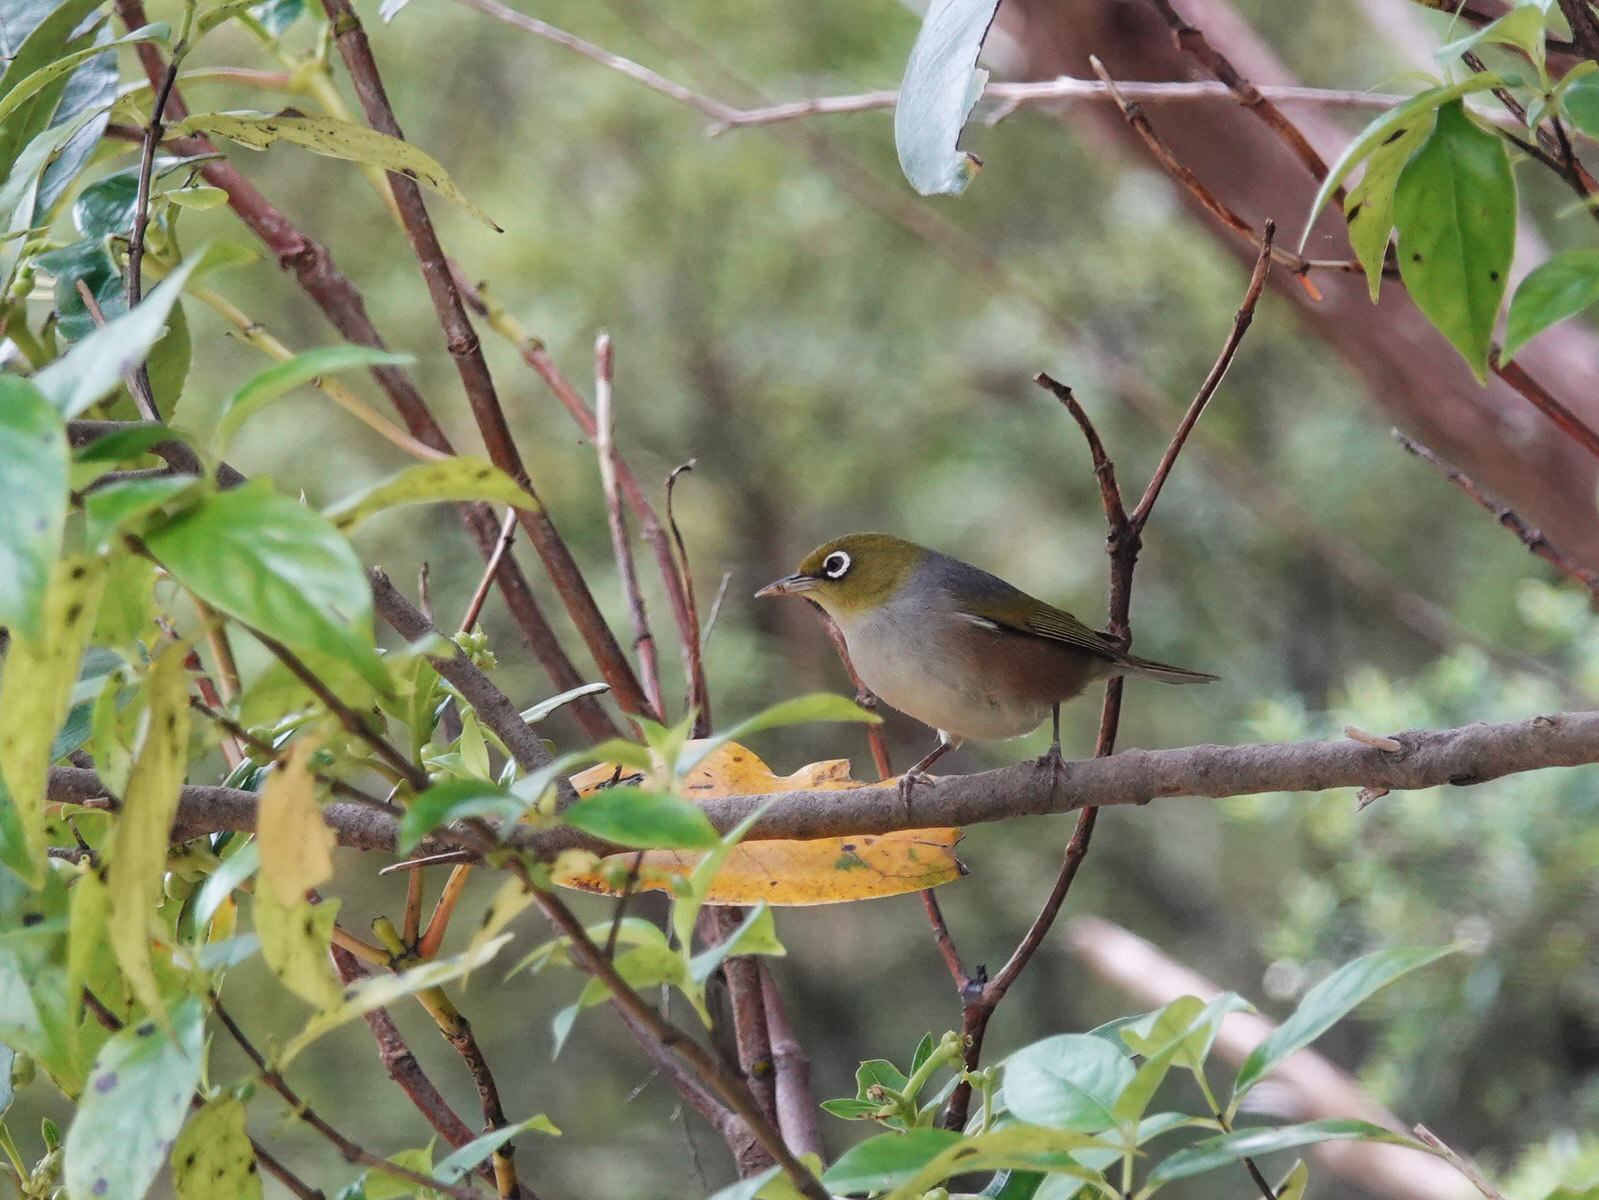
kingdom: Animalia
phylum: Chordata
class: Aves
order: Passeriformes
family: Zosteropidae
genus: Zosterops
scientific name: Zosterops lateralis
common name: Silvereye
